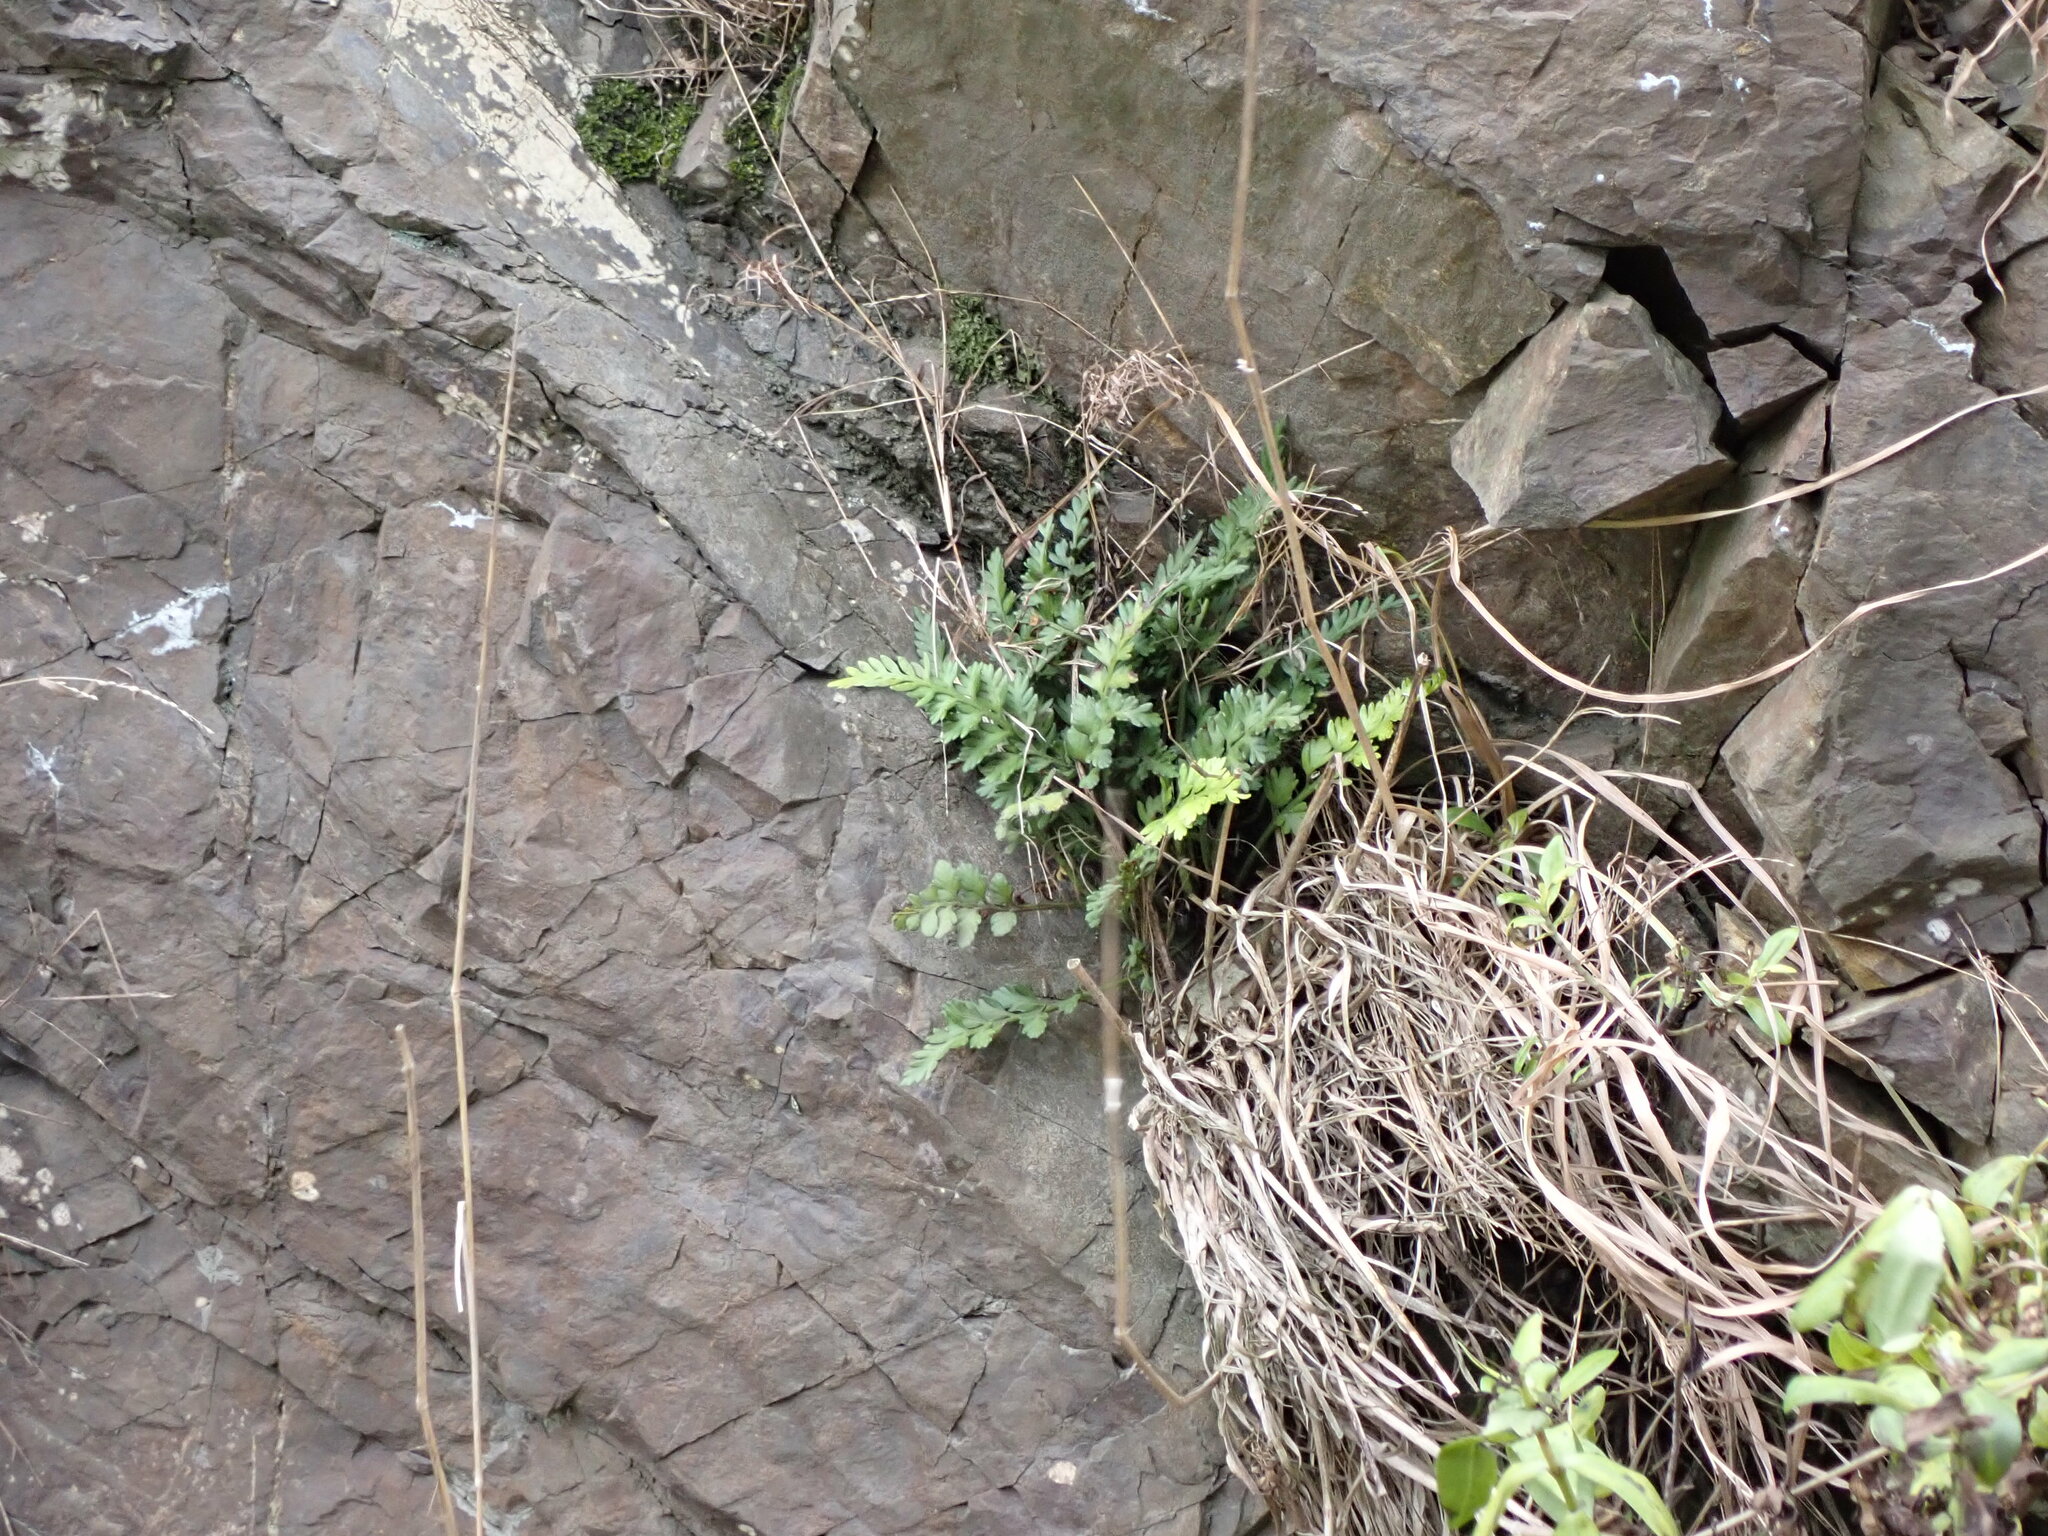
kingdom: Plantae
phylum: Tracheophyta
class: Polypodiopsida
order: Polypodiales
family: Aspleniaceae
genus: Asplenium
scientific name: Asplenium appendiculatum
